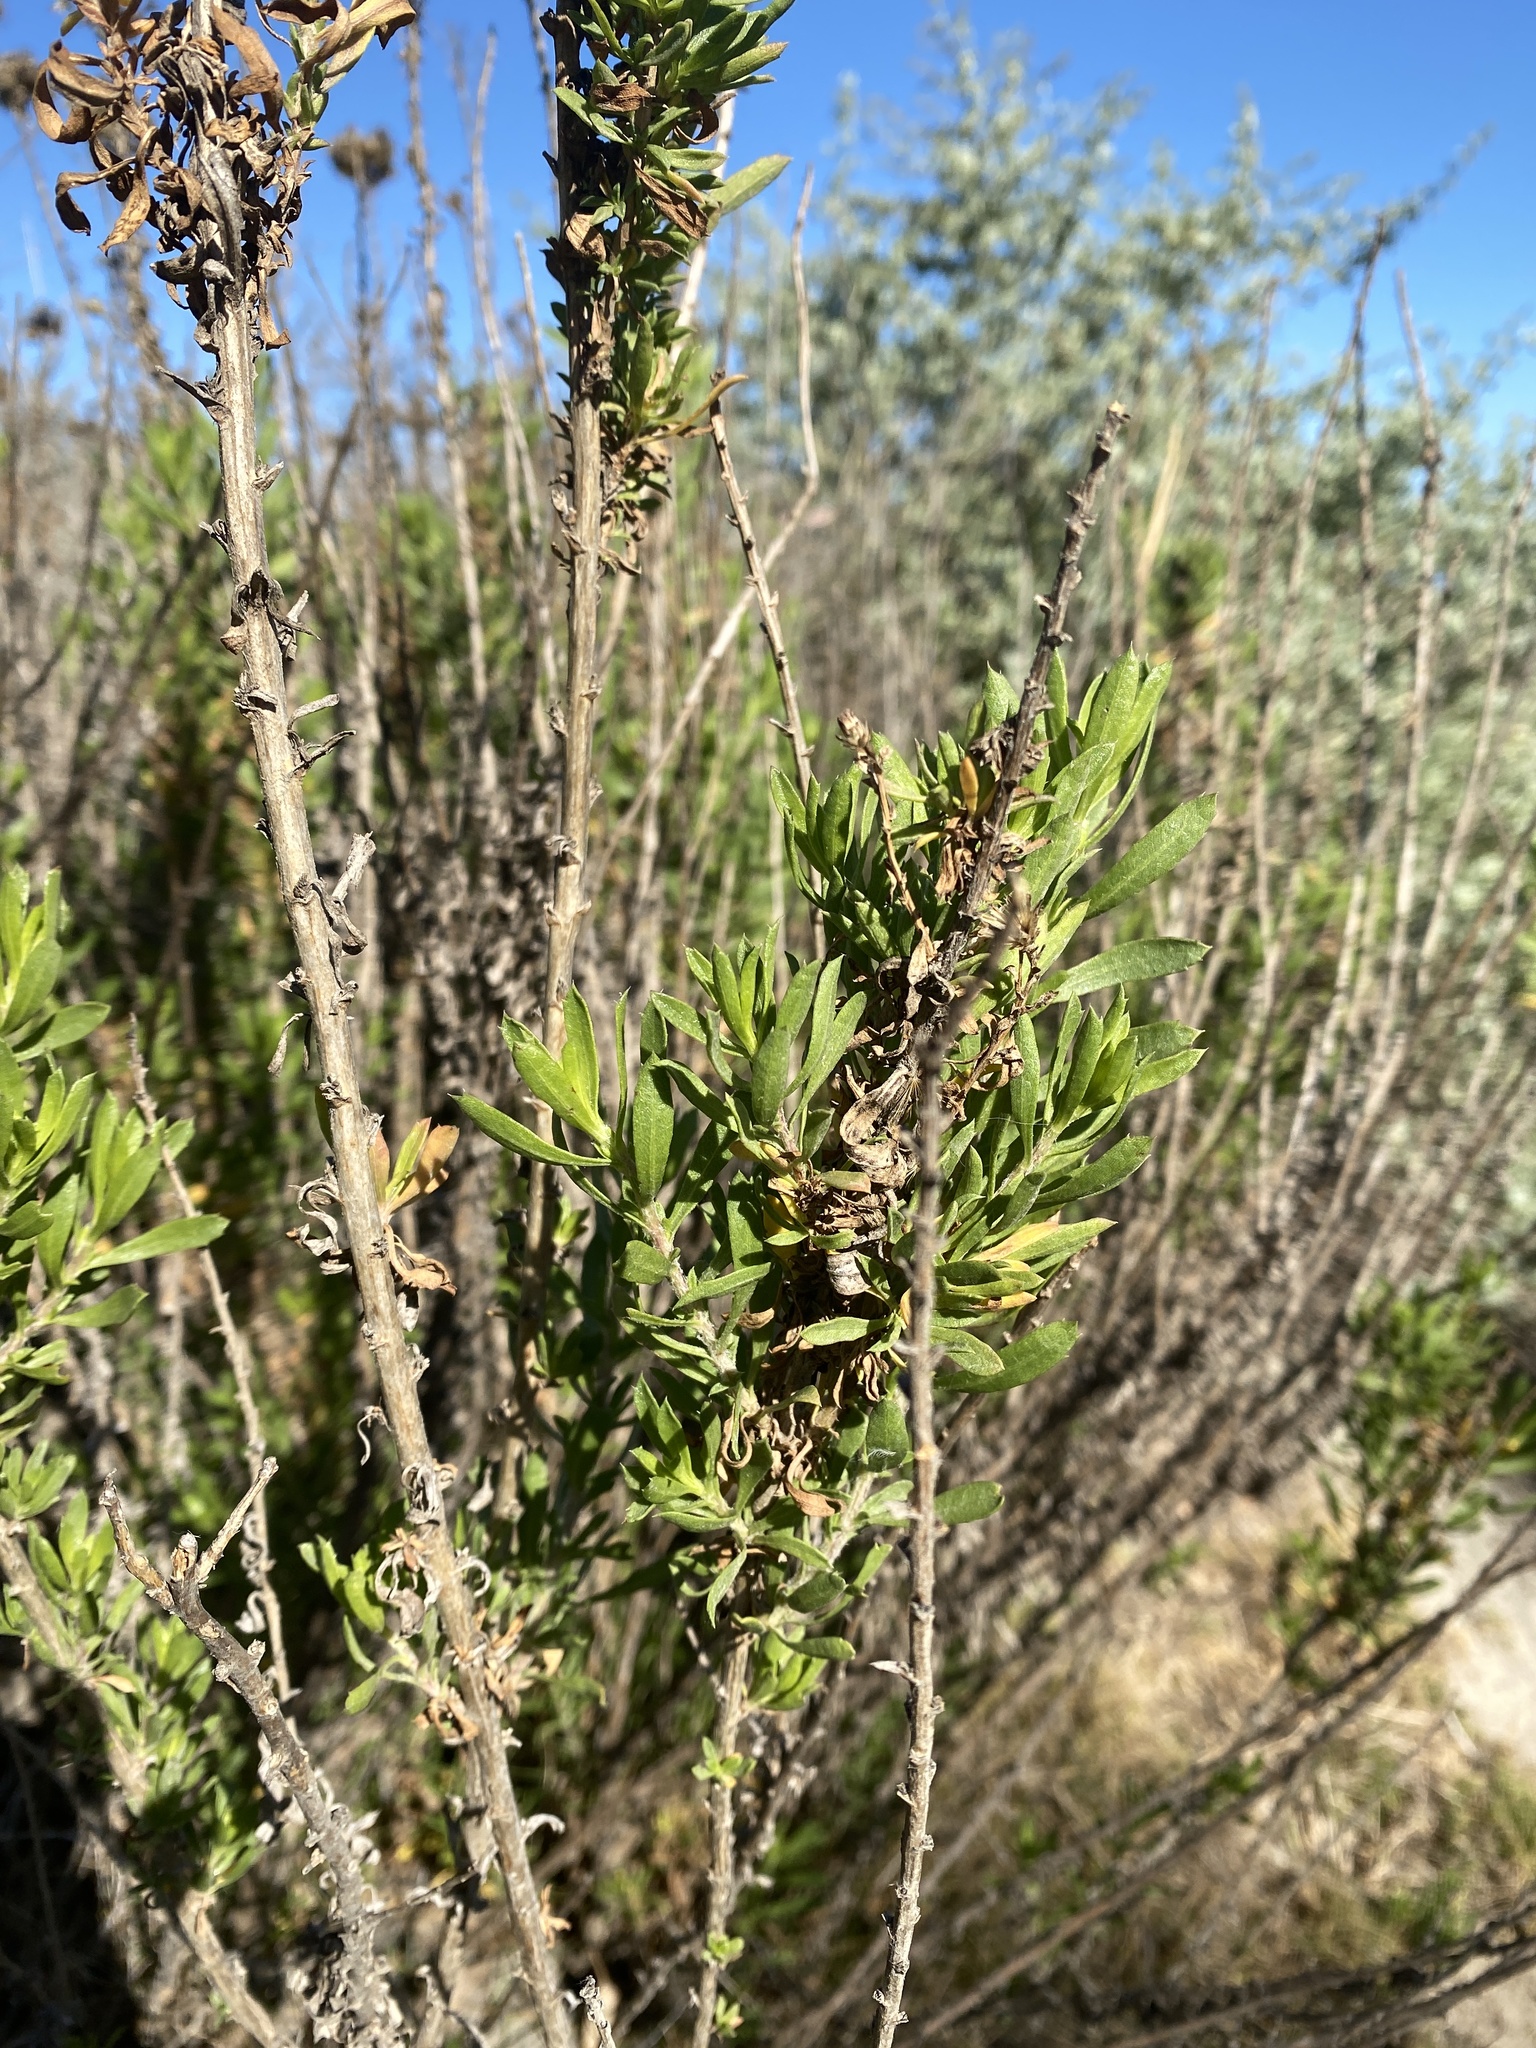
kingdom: Plantae
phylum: Tracheophyta
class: Magnoliopsida
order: Asterales
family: Asteraceae
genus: Isocoma
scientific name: Isocoma menziesii
